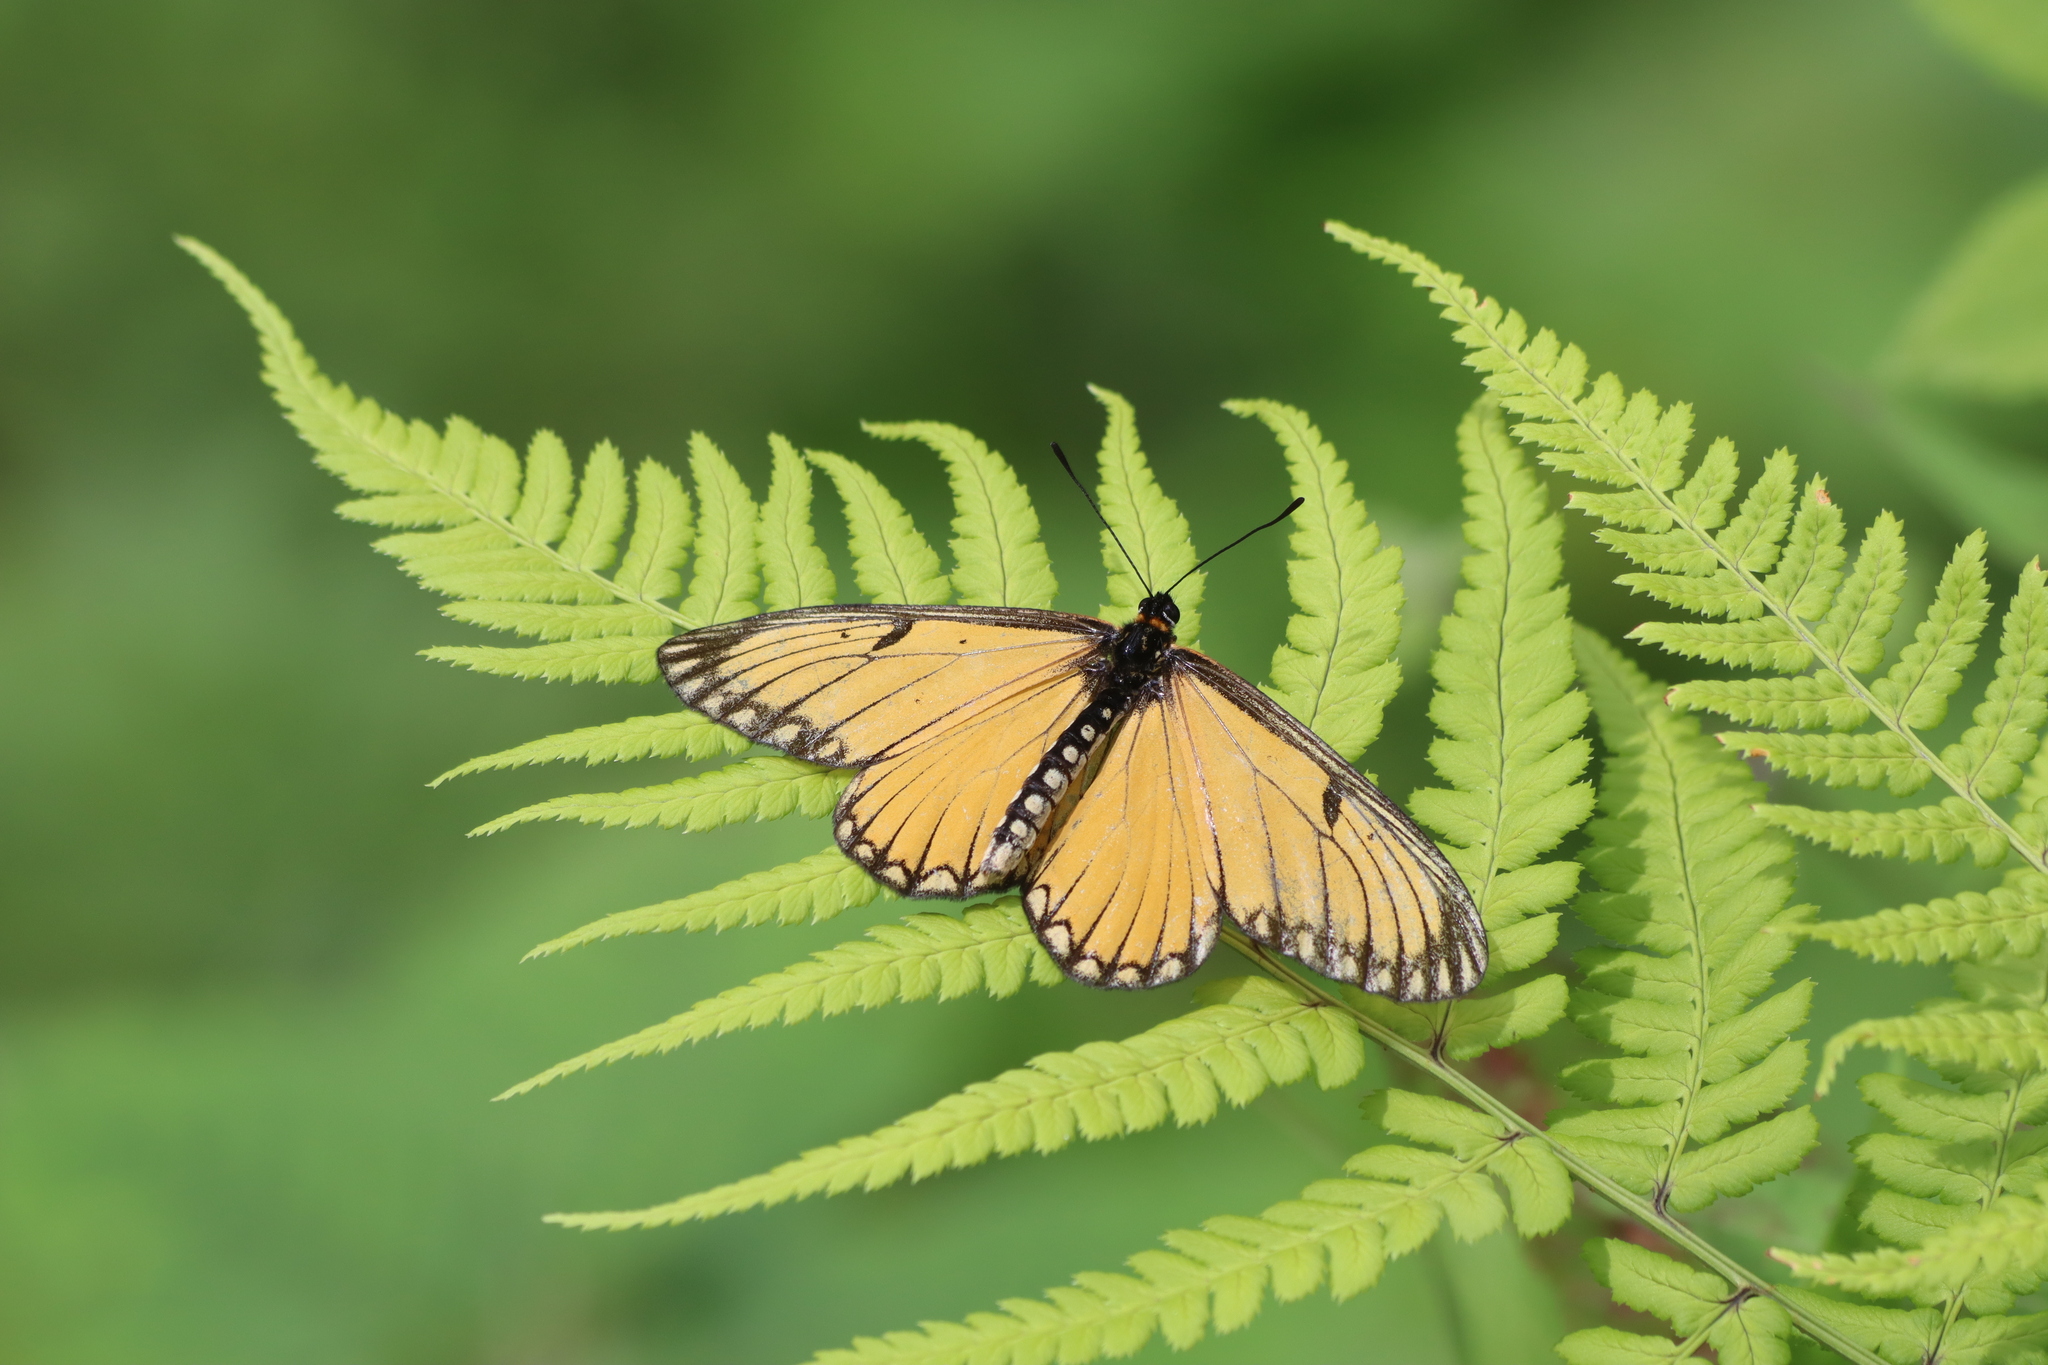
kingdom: Animalia
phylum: Arthropoda
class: Insecta
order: Lepidoptera
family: Nymphalidae
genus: Acraea
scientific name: Acraea Telchinia issoria
